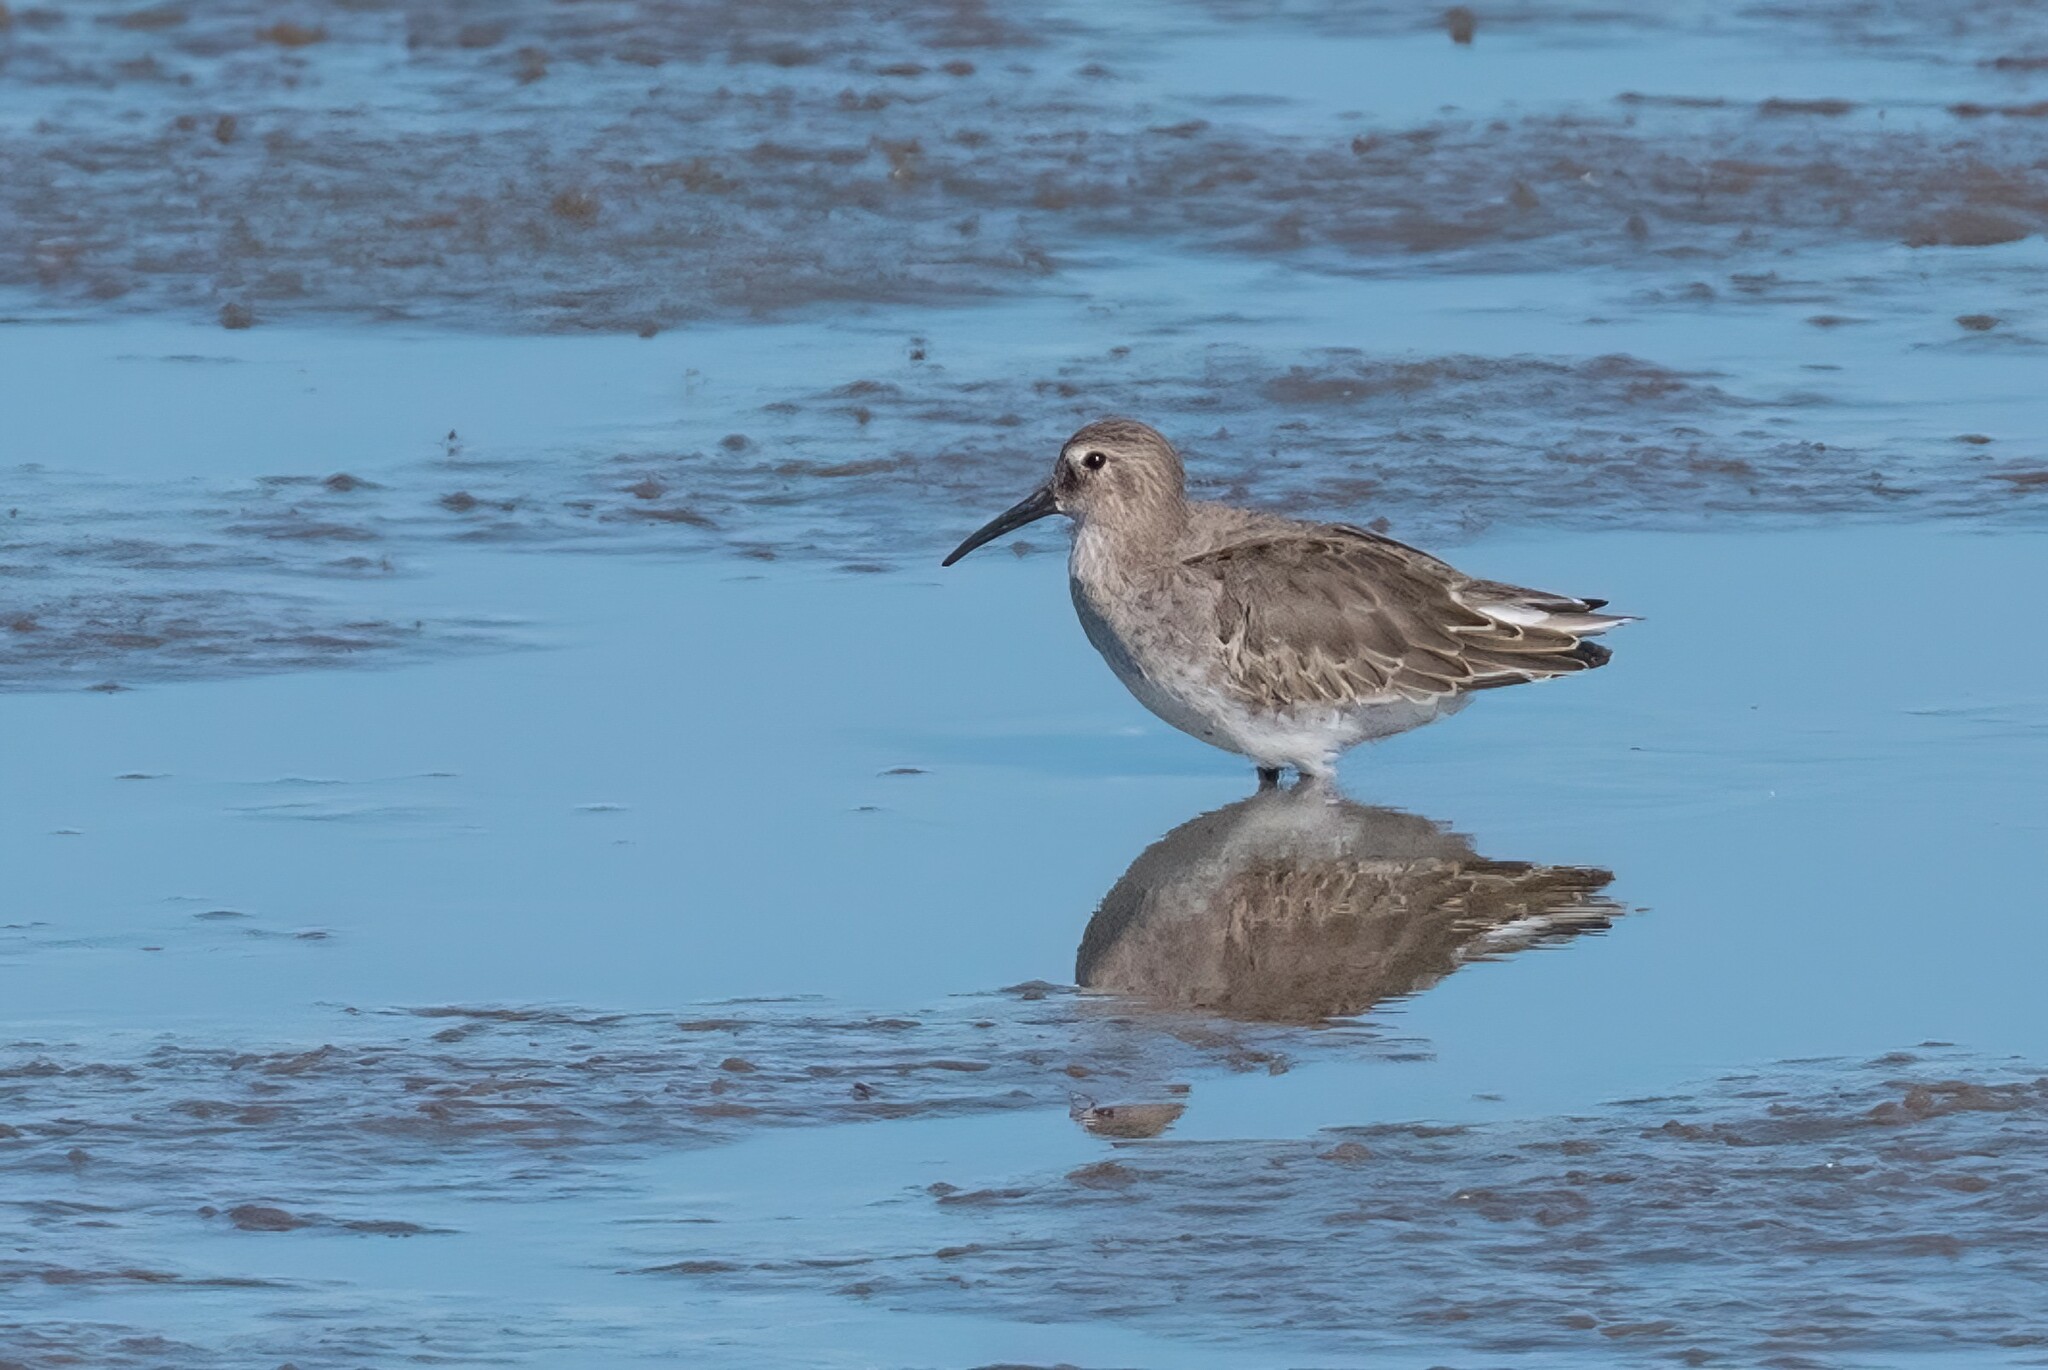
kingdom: Animalia
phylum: Chordata
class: Aves
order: Charadriiformes
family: Scolopacidae
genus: Calidris
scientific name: Calidris alpina
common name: Dunlin
